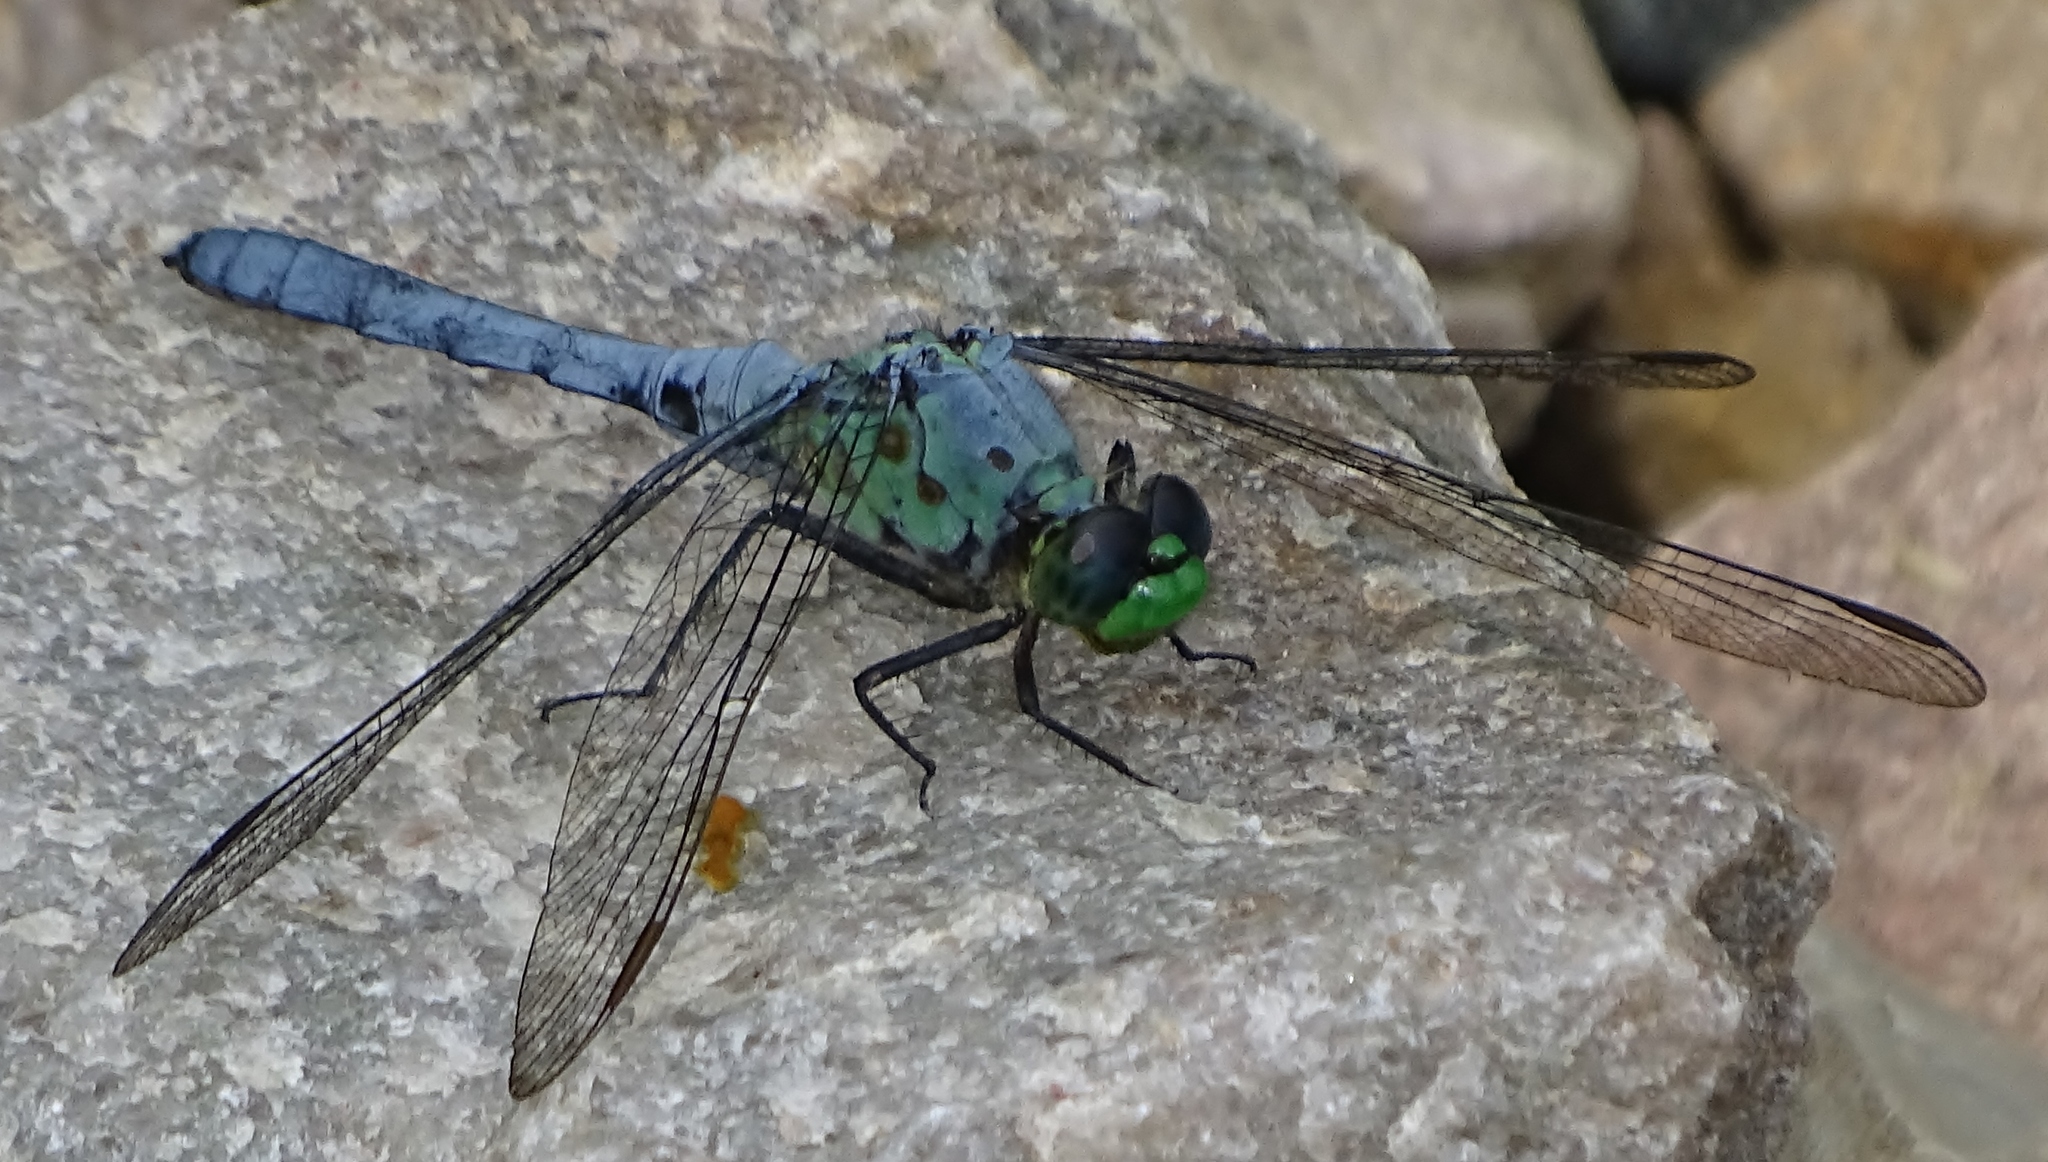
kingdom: Animalia
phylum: Arthropoda
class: Insecta
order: Odonata
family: Libellulidae
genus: Erythemis
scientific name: Erythemis simplicicollis
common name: Eastern pondhawk
